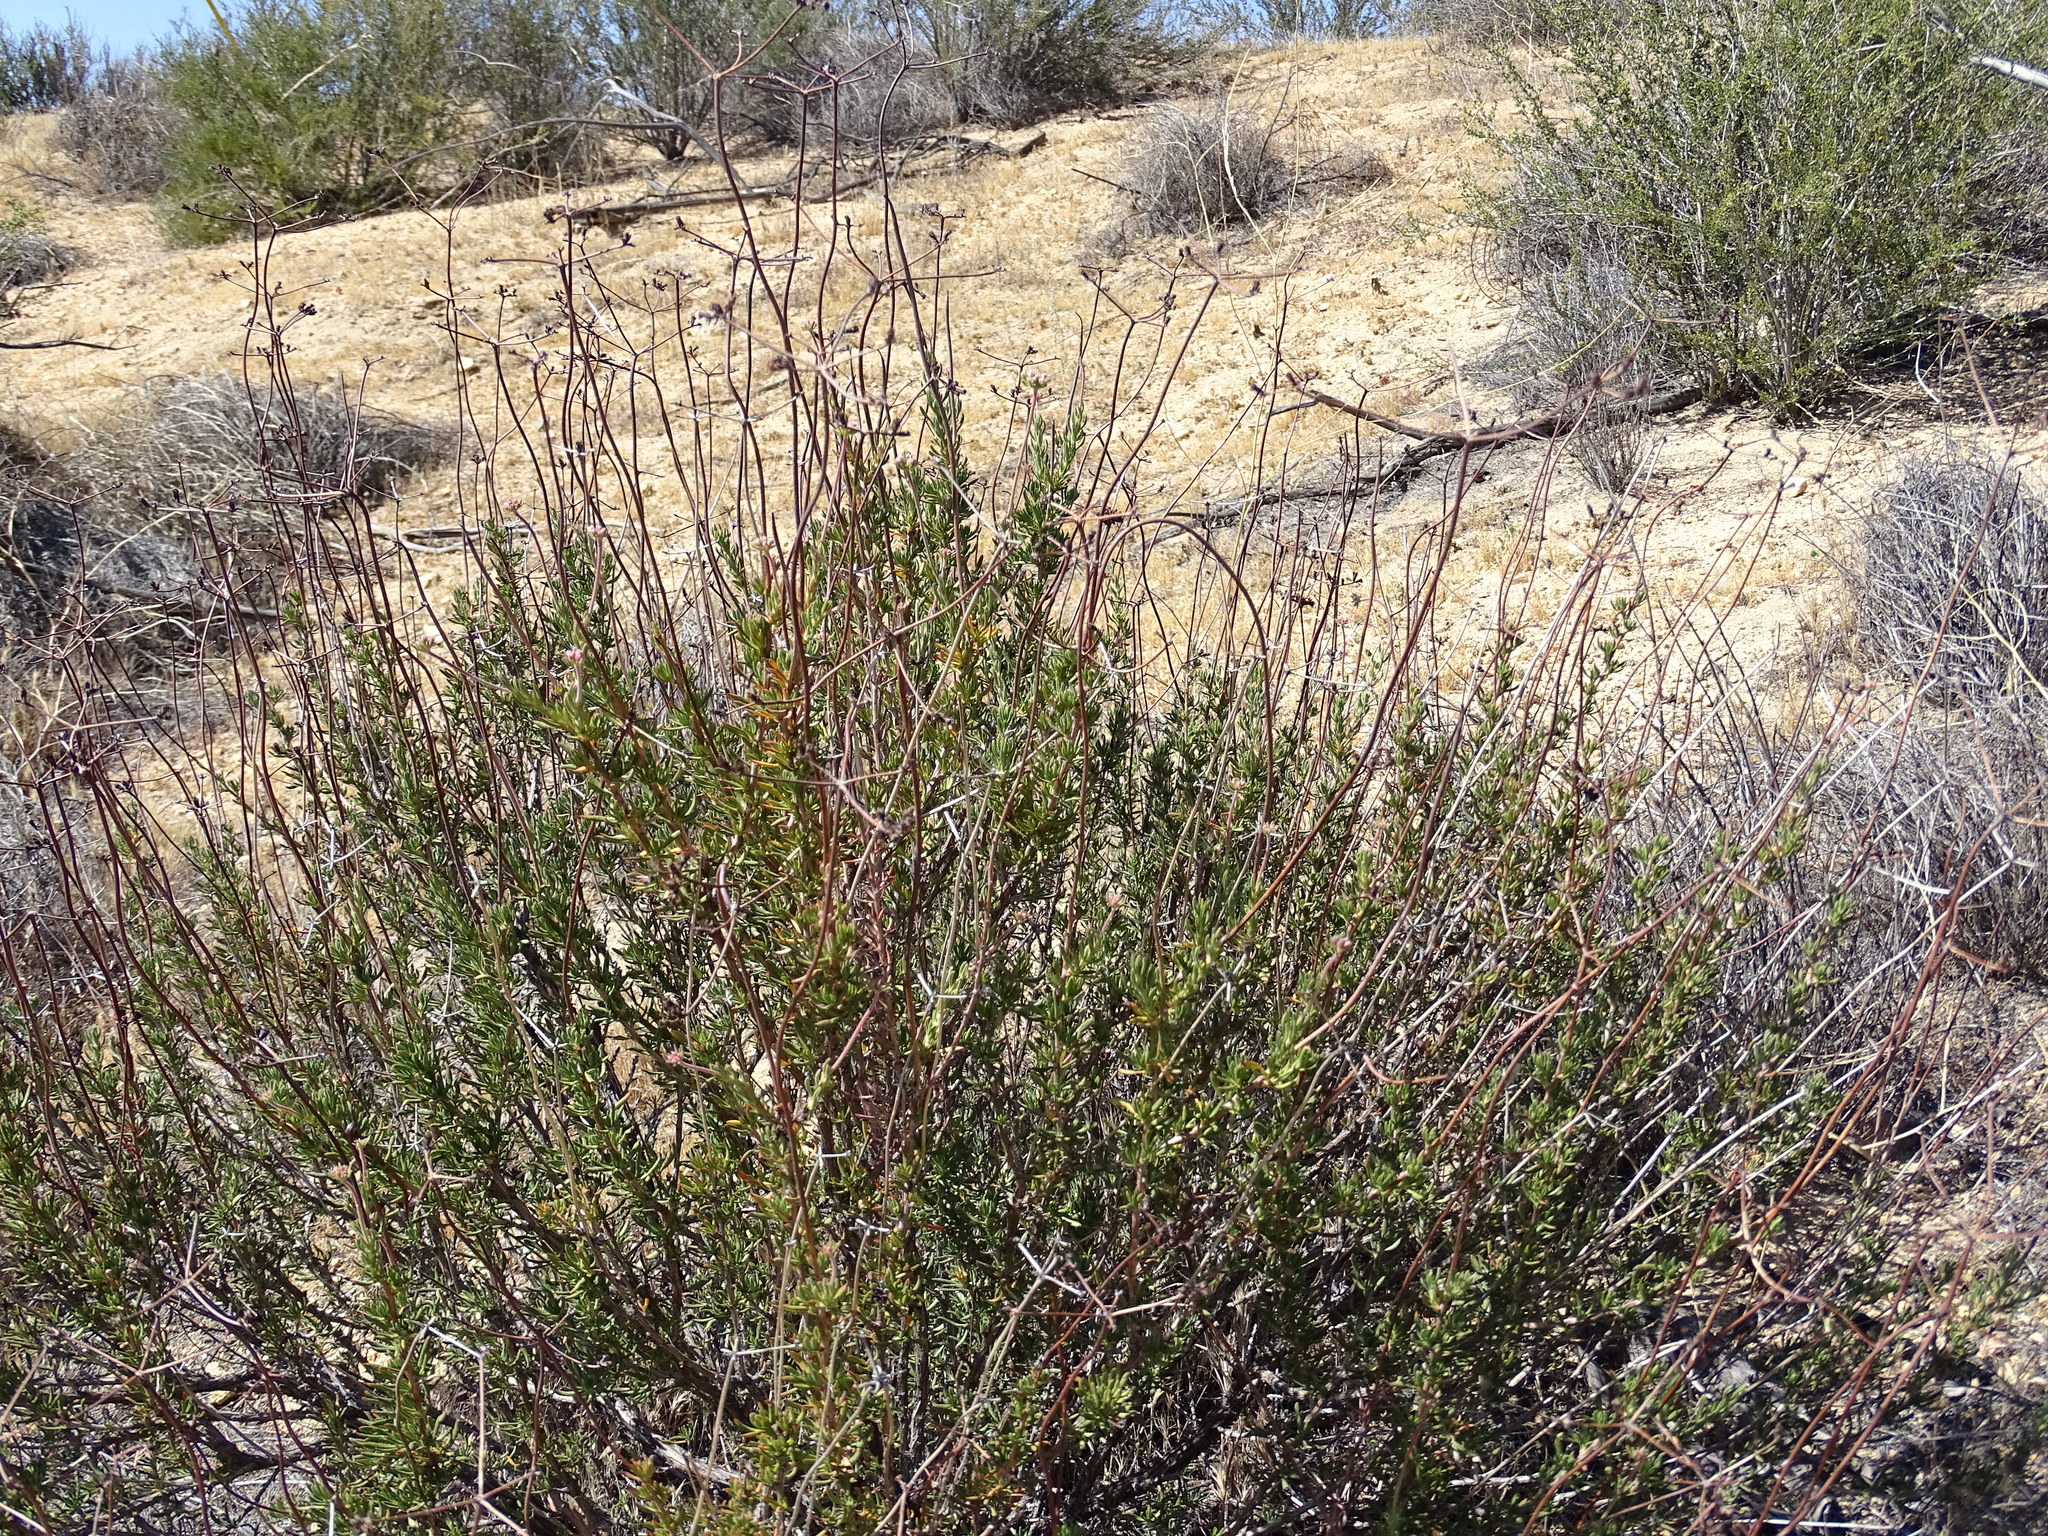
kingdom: Plantae
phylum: Tracheophyta
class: Magnoliopsida
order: Caryophyllales
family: Polygonaceae
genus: Eriogonum
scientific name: Eriogonum fasciculatum
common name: California wild buckwheat
